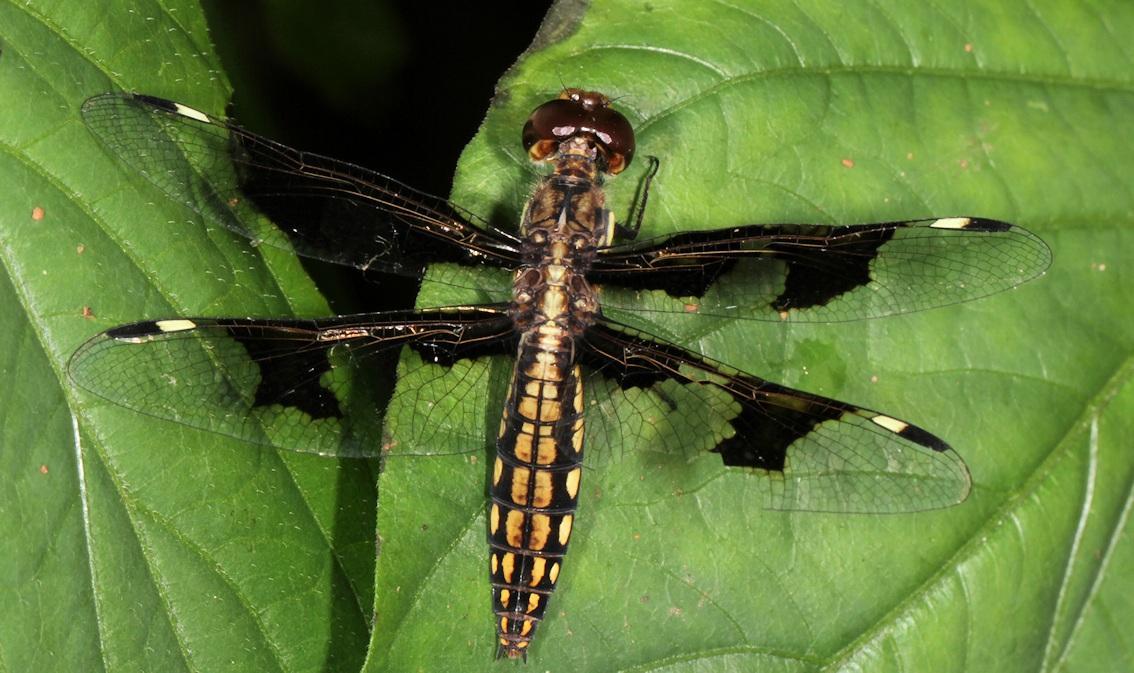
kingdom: Animalia
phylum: Arthropoda
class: Insecta
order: Odonata
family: Libellulidae
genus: Palpopleura
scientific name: Palpopleura portia
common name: Portia widow
